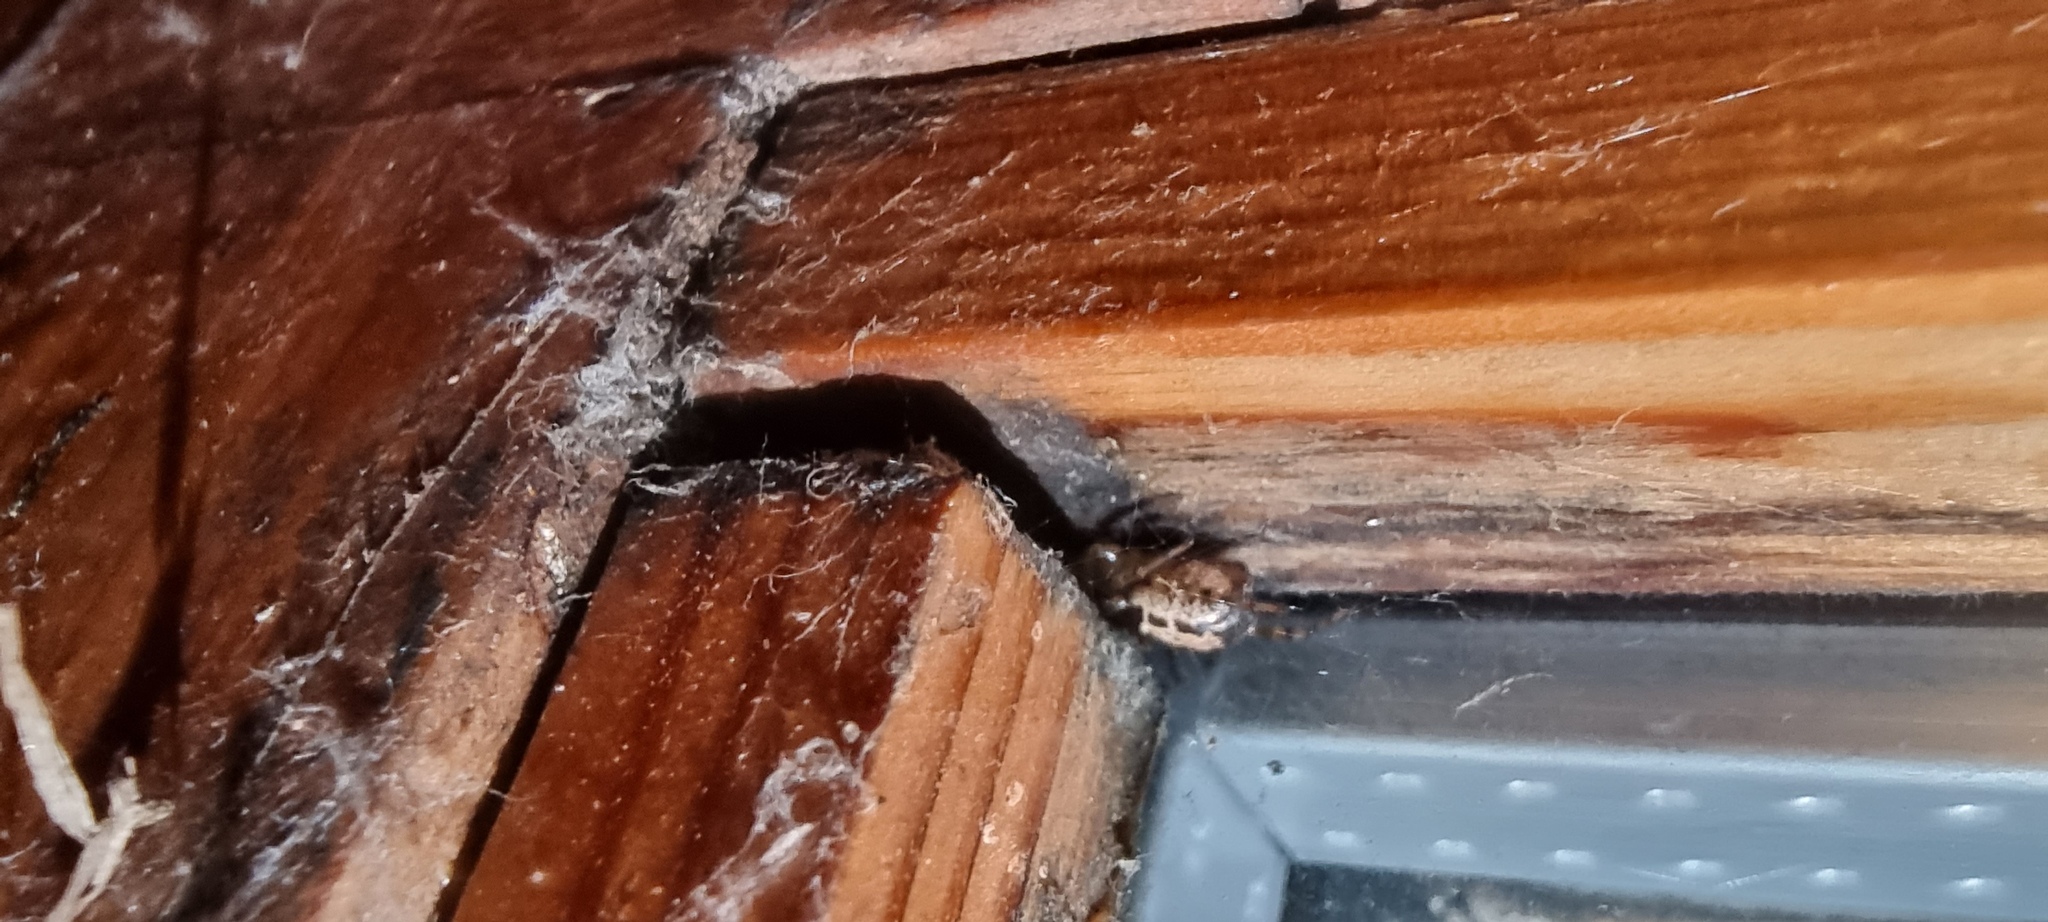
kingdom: Animalia
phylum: Arthropoda
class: Arachnida
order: Araneae
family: Theridiidae
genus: Steatoda
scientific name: Steatoda nobilis
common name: Cobweb weaver
